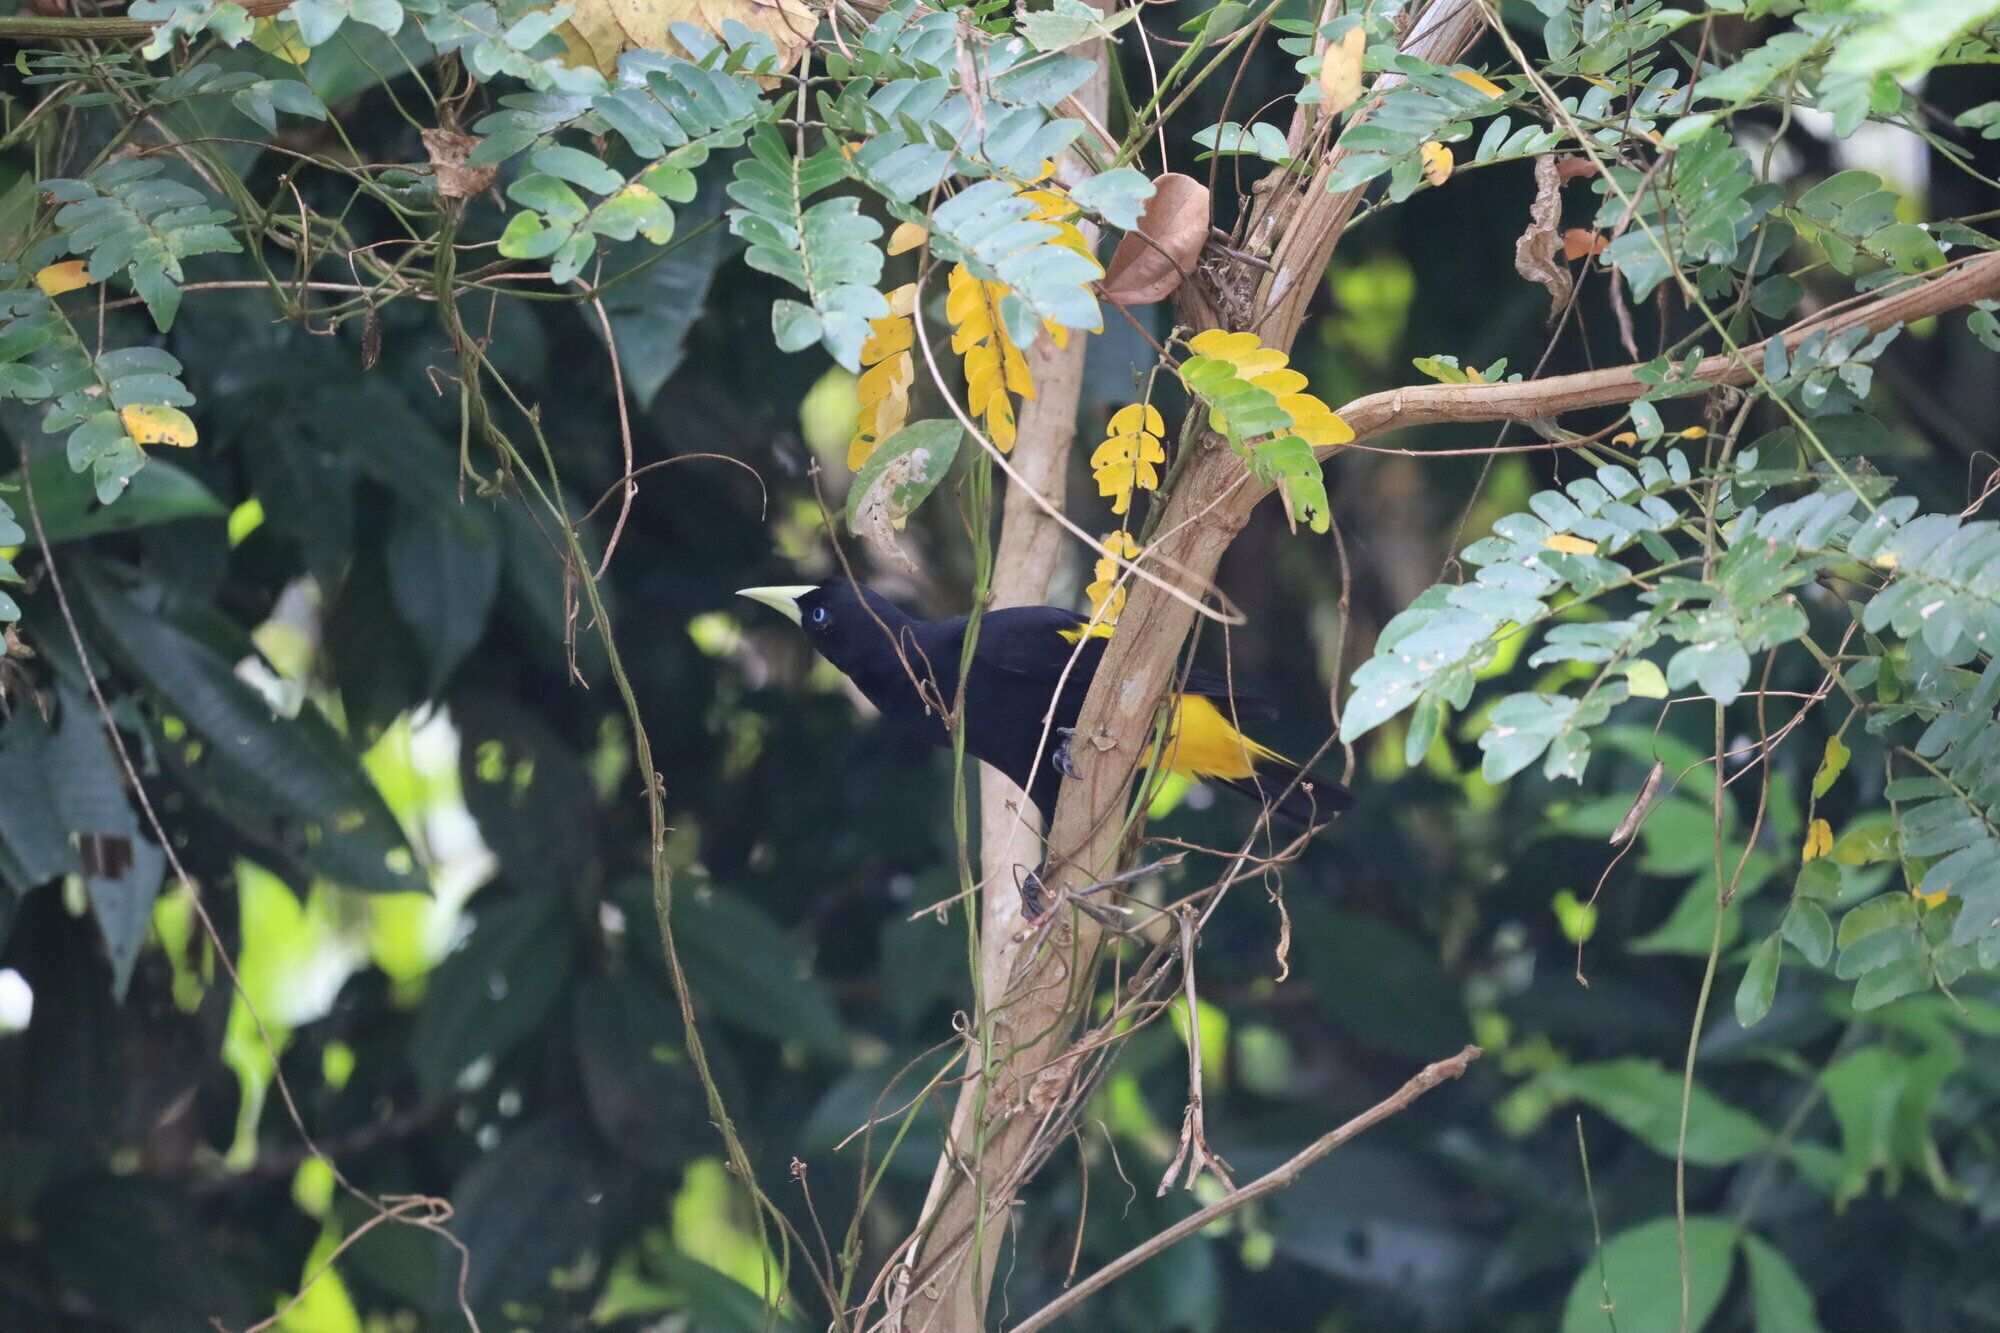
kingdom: Animalia
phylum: Chordata
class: Aves
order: Passeriformes
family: Icteridae
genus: Cacicus
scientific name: Cacicus cela
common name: Yellow-rumped cacique
